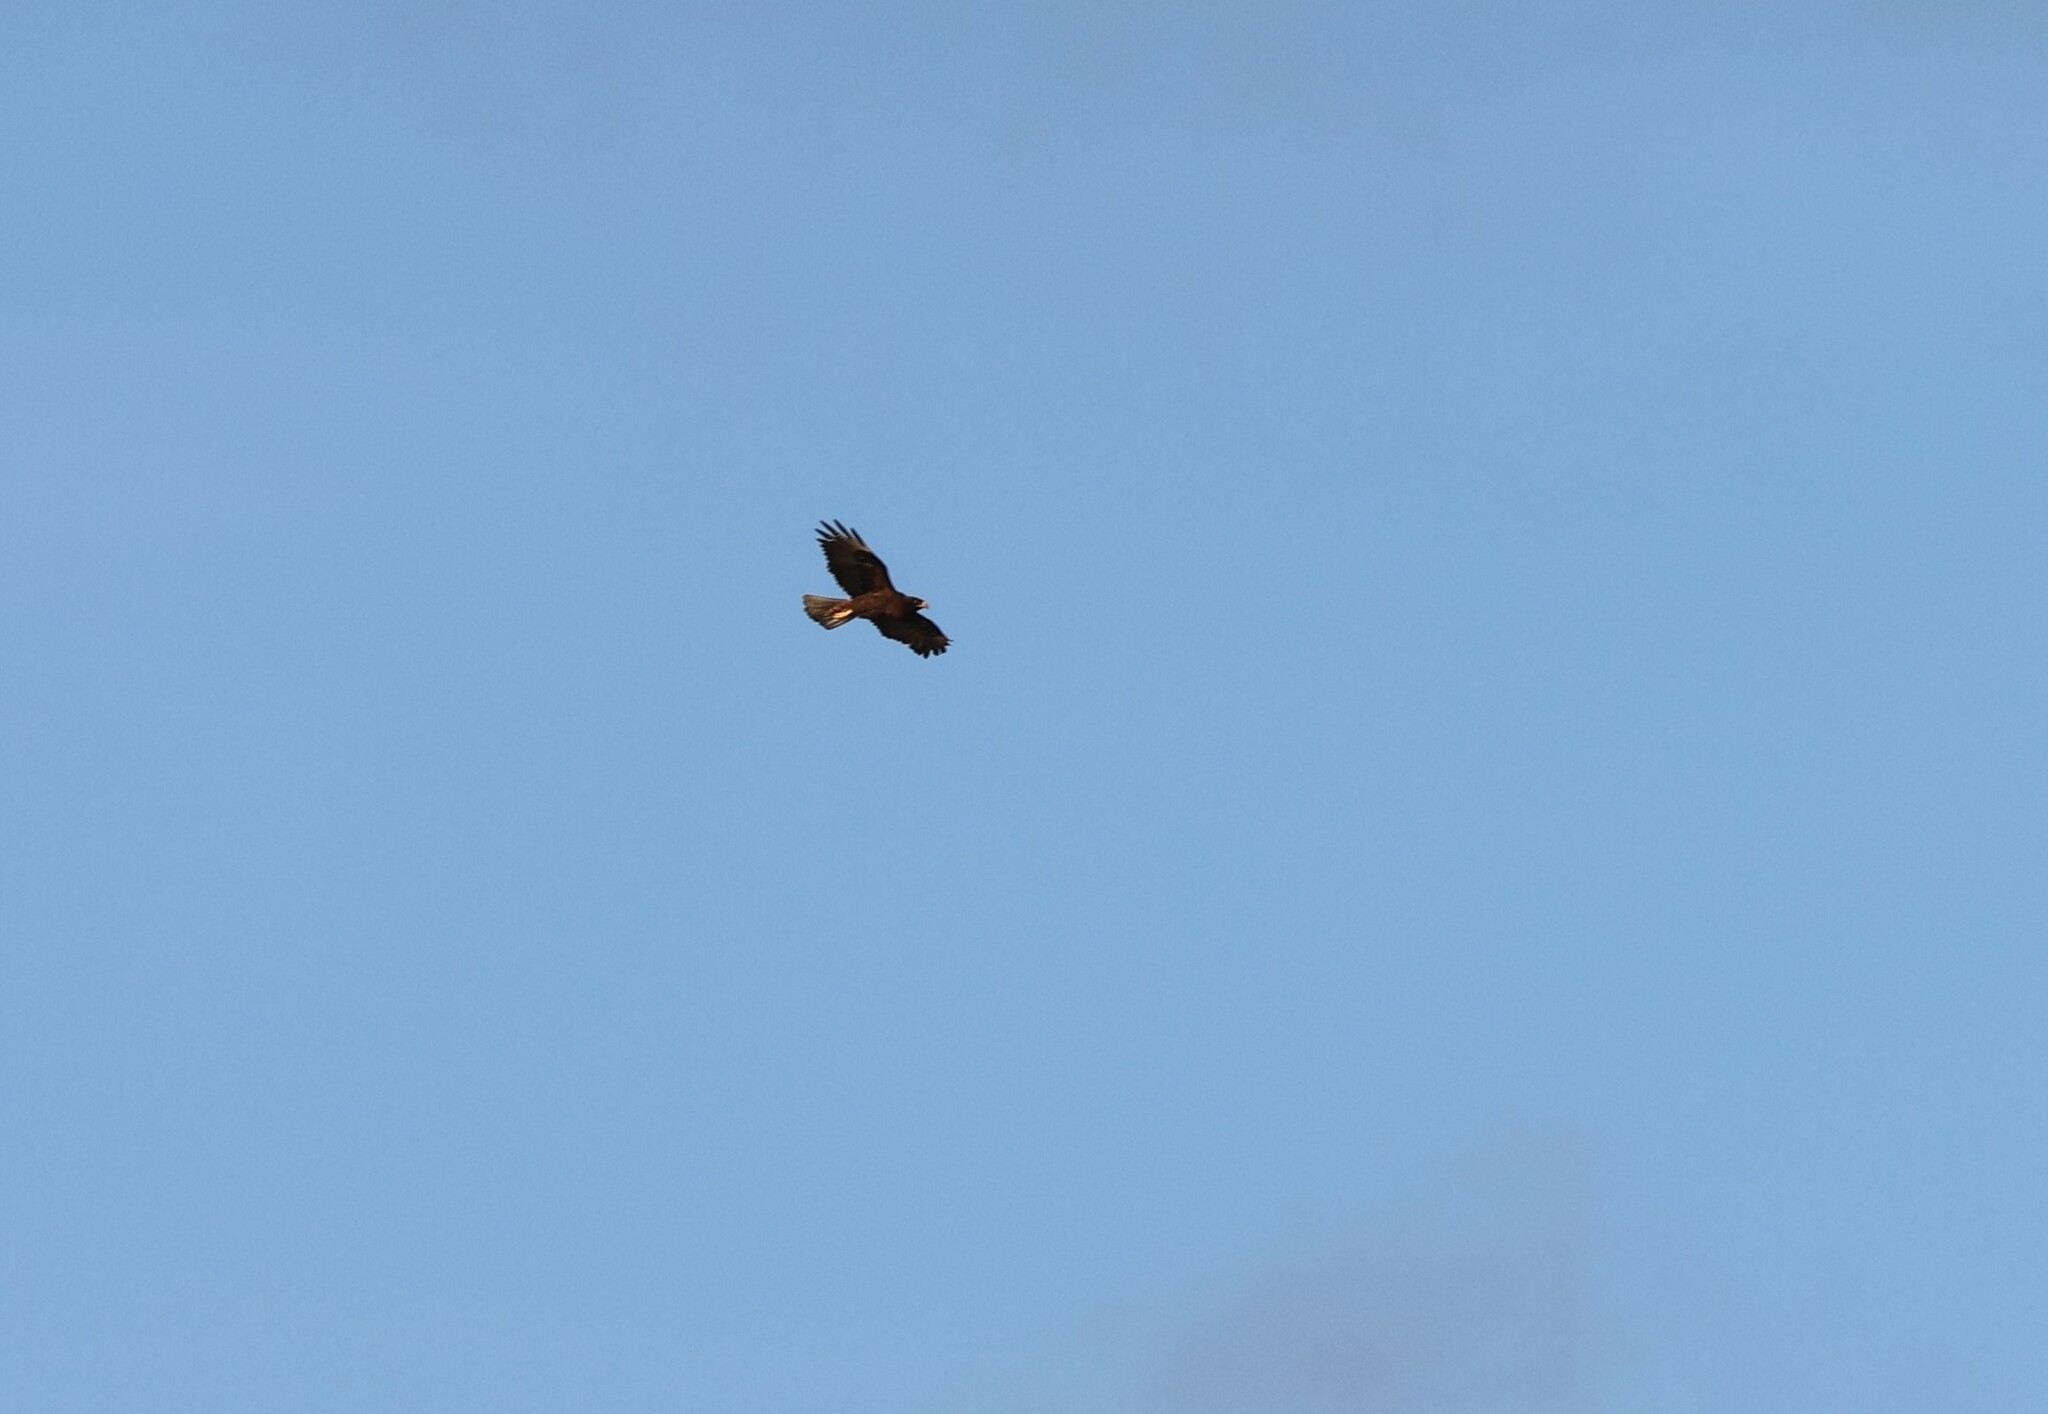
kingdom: Animalia
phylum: Chordata
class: Aves
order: Accipitriformes
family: Accipitridae
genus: Buteo
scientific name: Buteo galapagoensis
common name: Galapagos hawk
